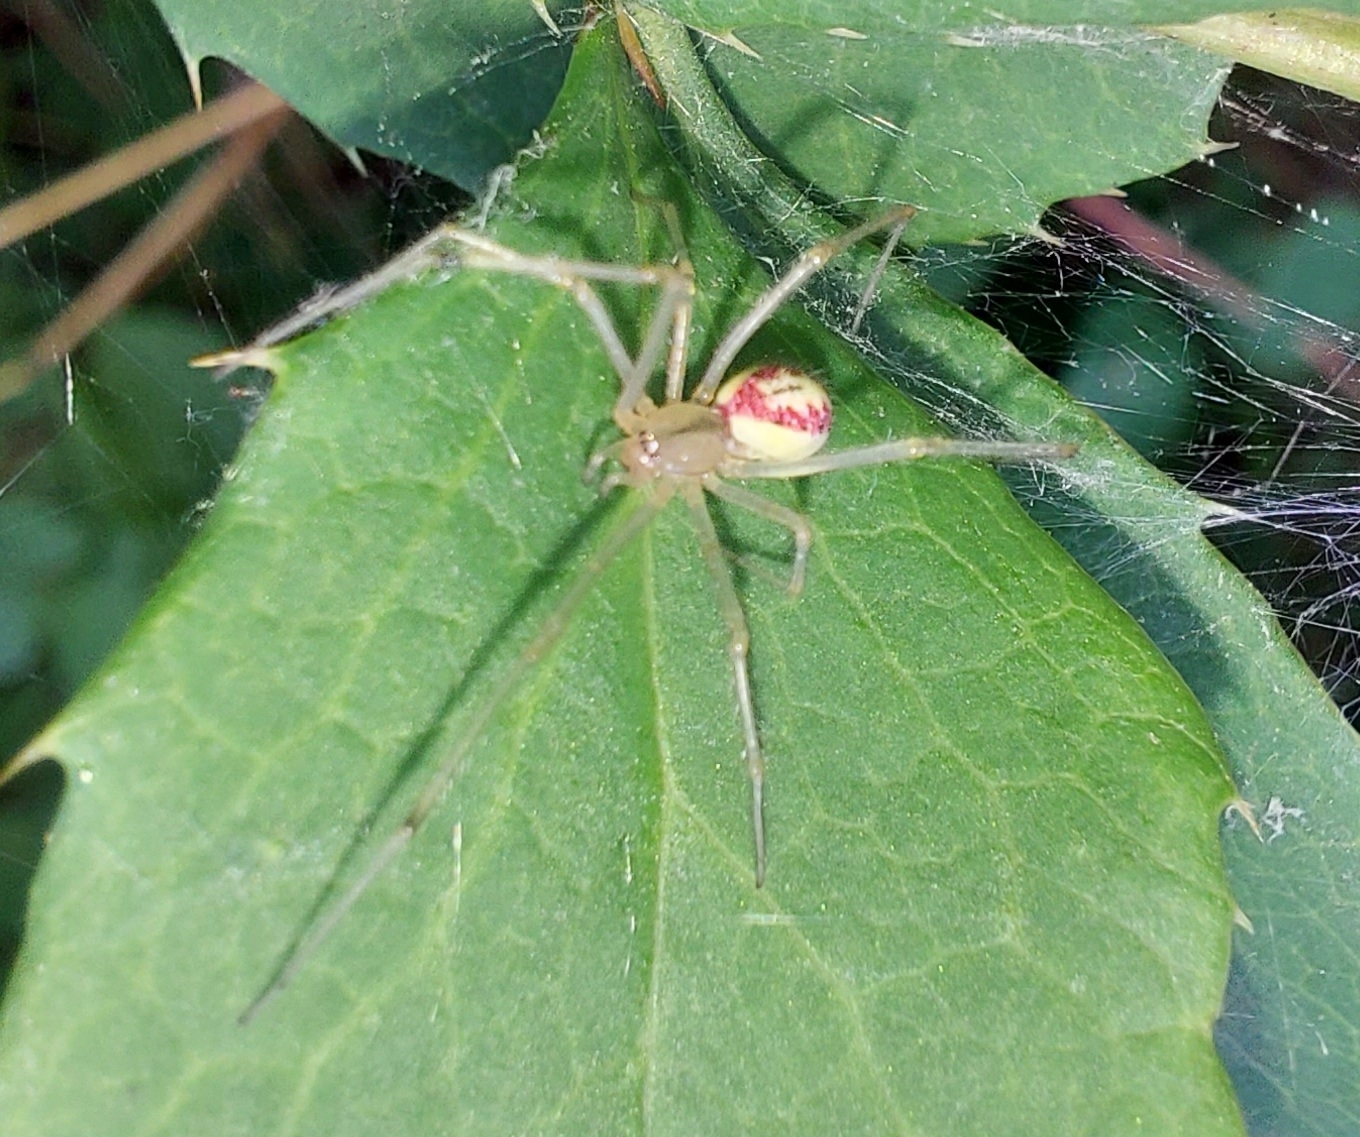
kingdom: Animalia
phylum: Arthropoda
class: Arachnida
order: Araneae
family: Theridiidae
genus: Enoplognatha
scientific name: Enoplognatha ovata
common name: Common candy-striped spider
